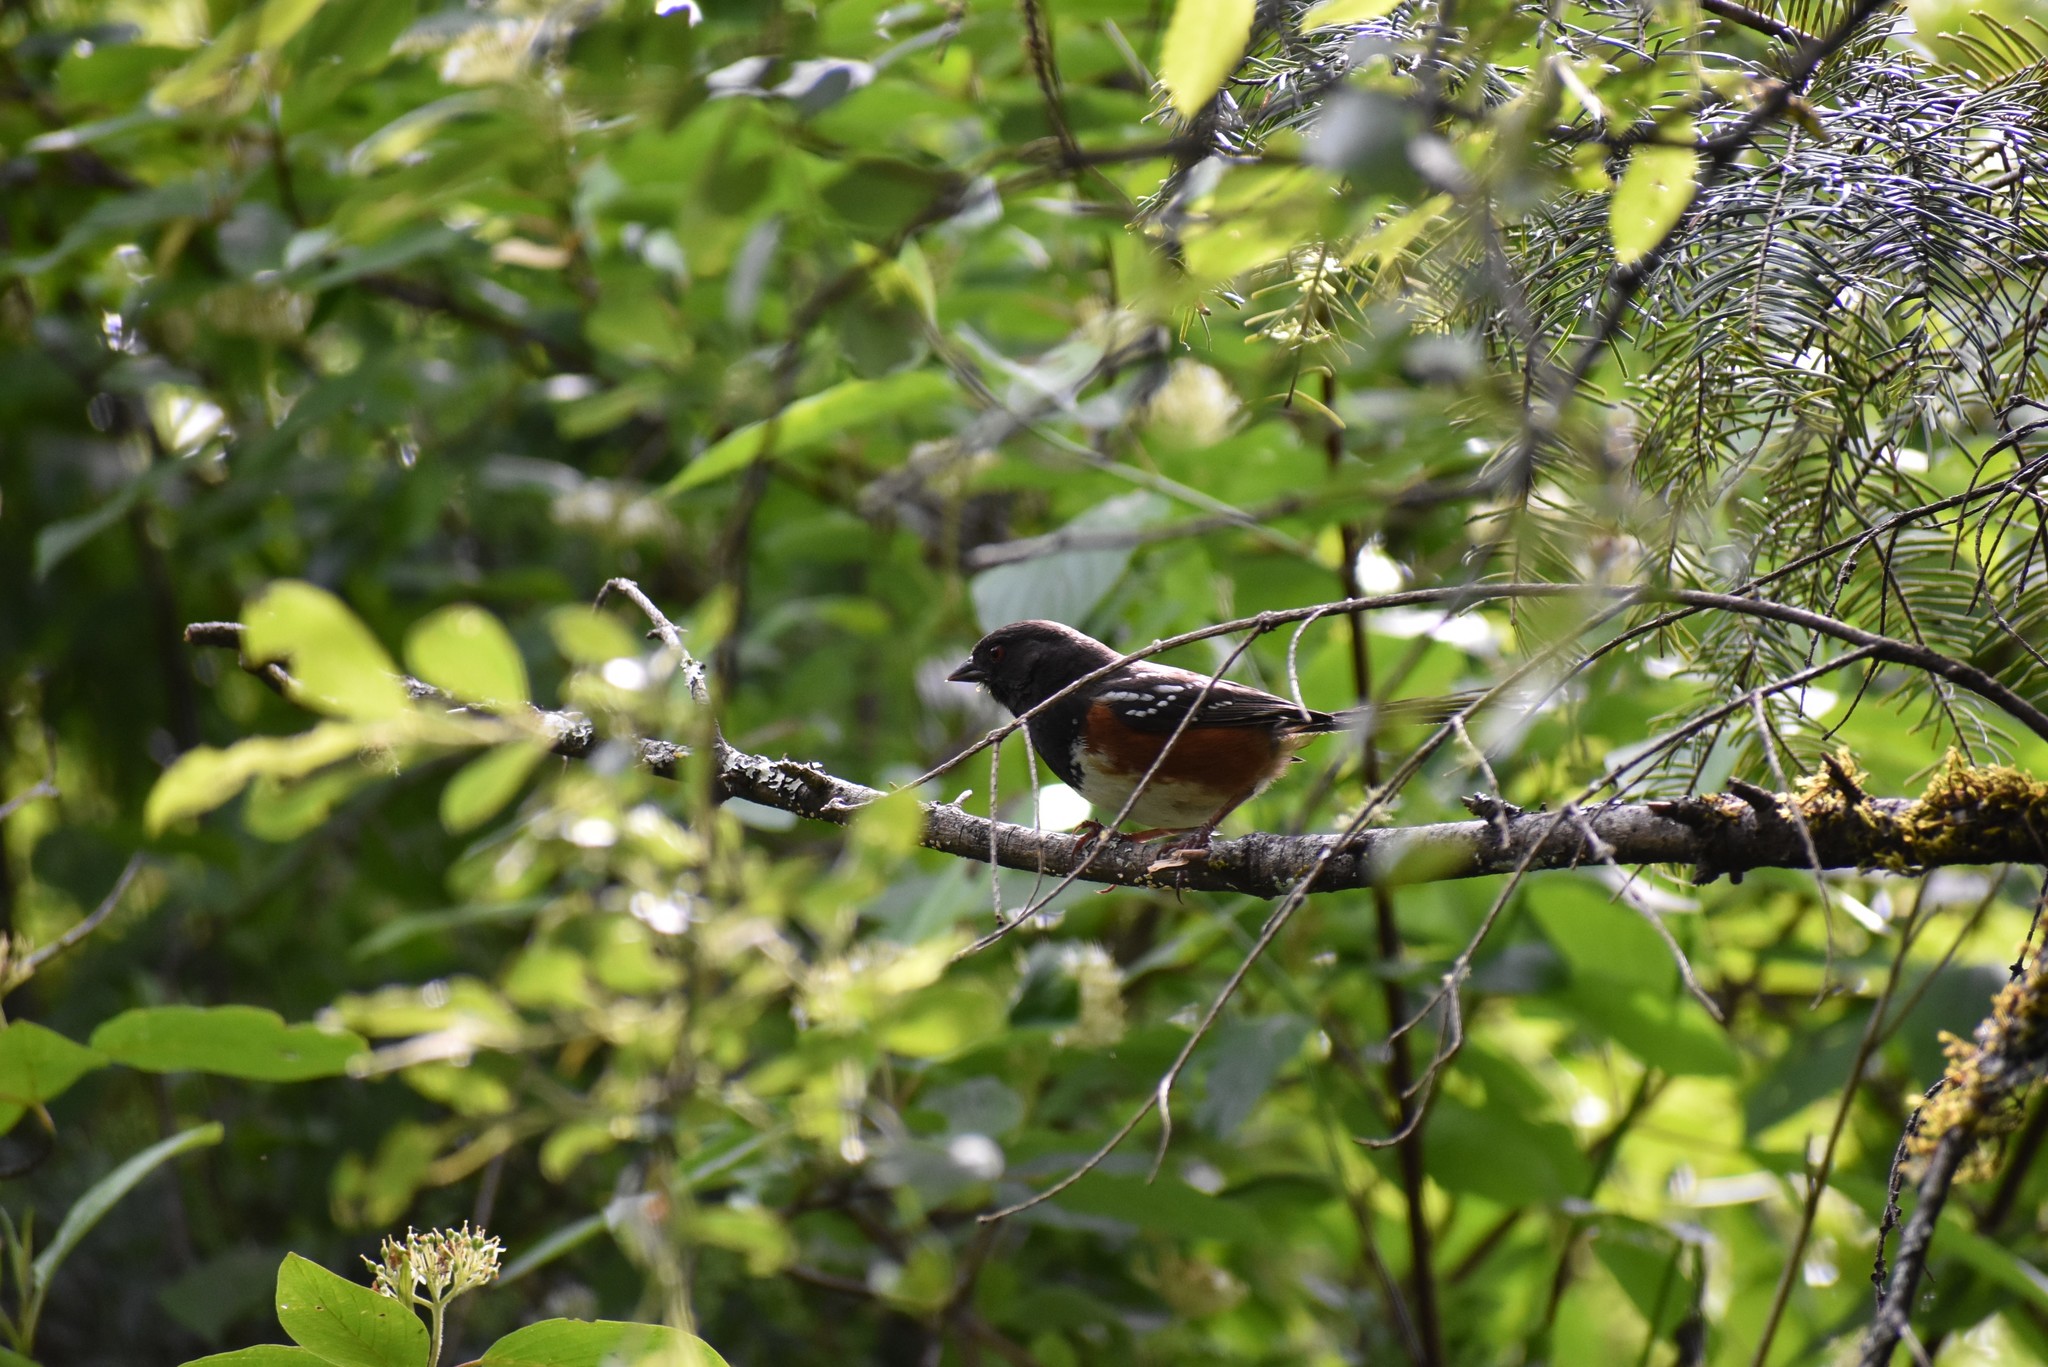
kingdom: Animalia
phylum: Chordata
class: Aves
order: Passeriformes
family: Passerellidae
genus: Pipilo
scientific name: Pipilo maculatus
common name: Spotted towhee
